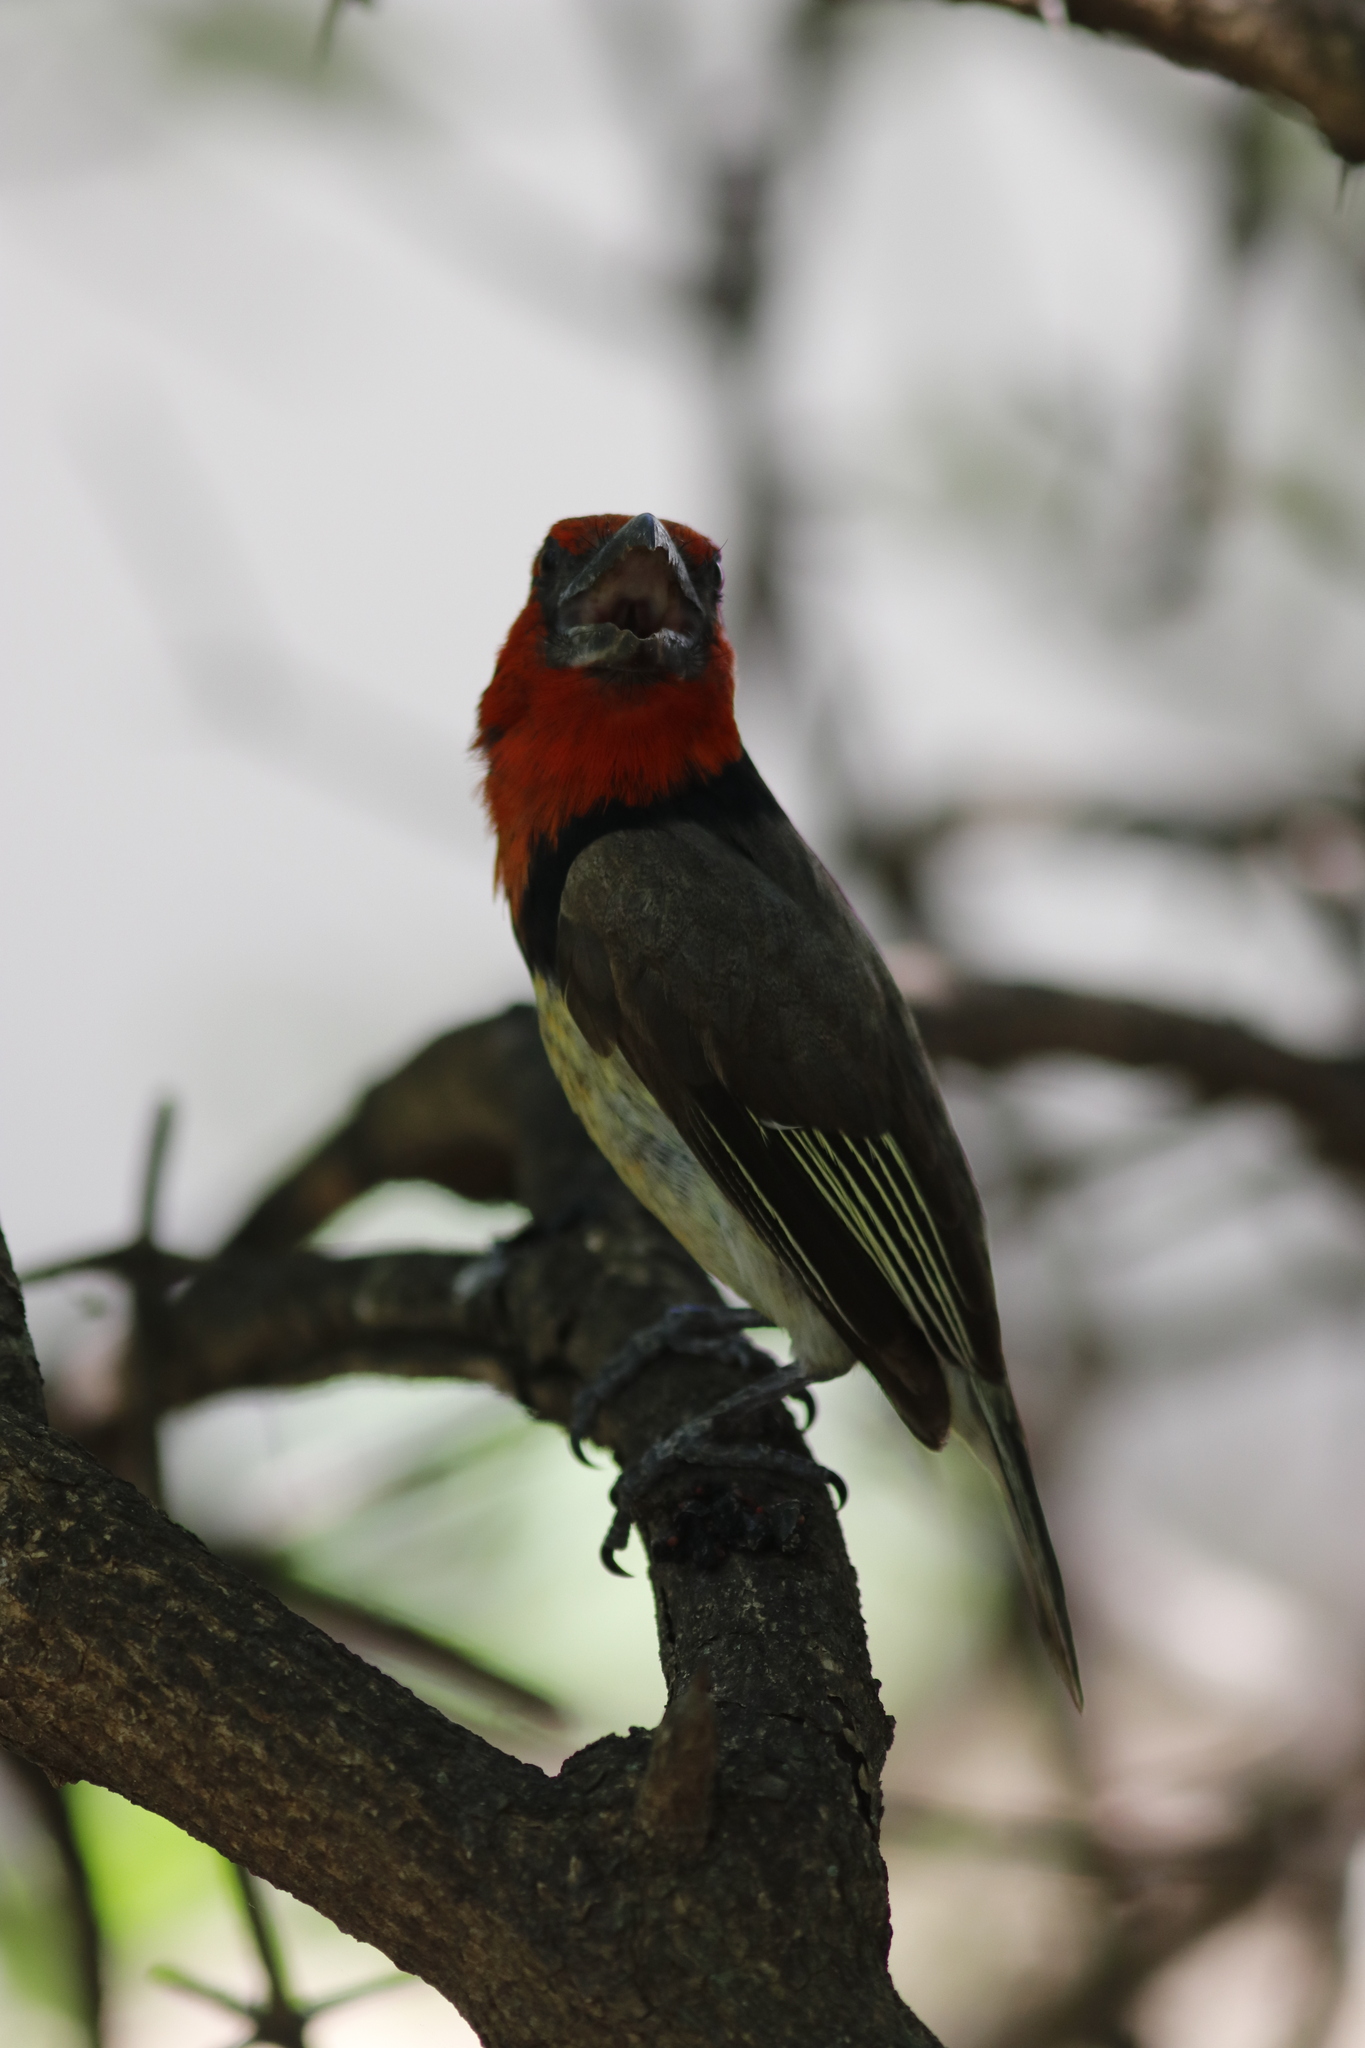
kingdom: Animalia
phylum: Chordata
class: Aves
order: Piciformes
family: Lybiidae
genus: Lybius
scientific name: Lybius torquatus
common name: Black-collared barbet
